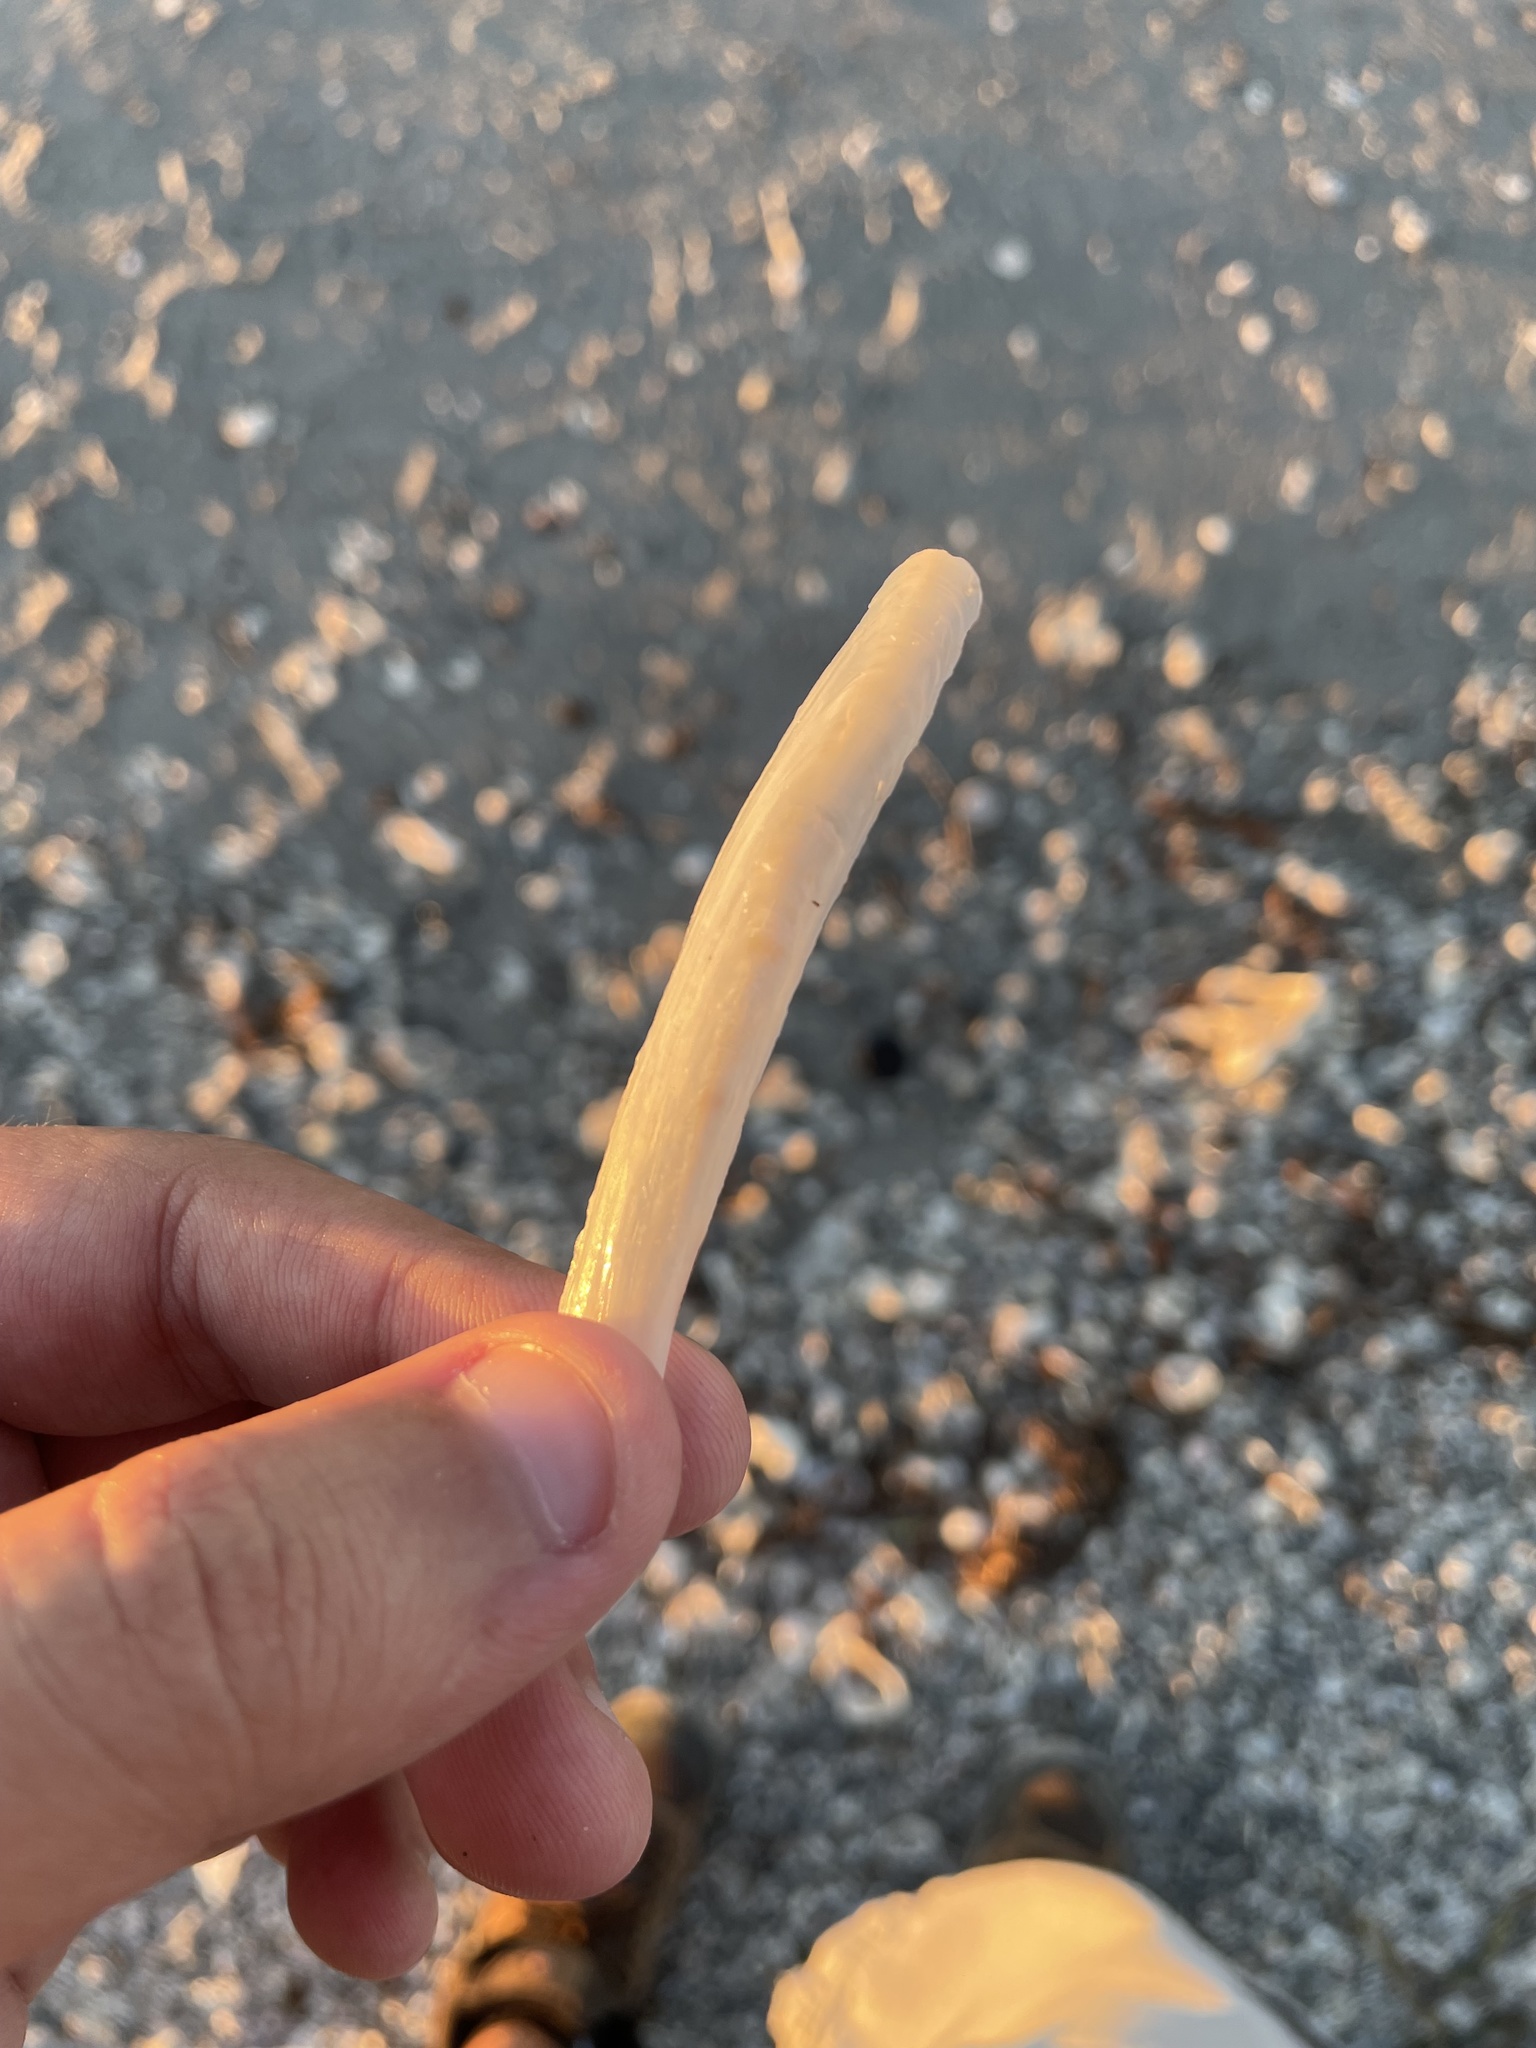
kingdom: Animalia
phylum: Mollusca
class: Bivalvia
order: Adapedonta
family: Pharidae
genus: Ensis
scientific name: Ensis megistus
